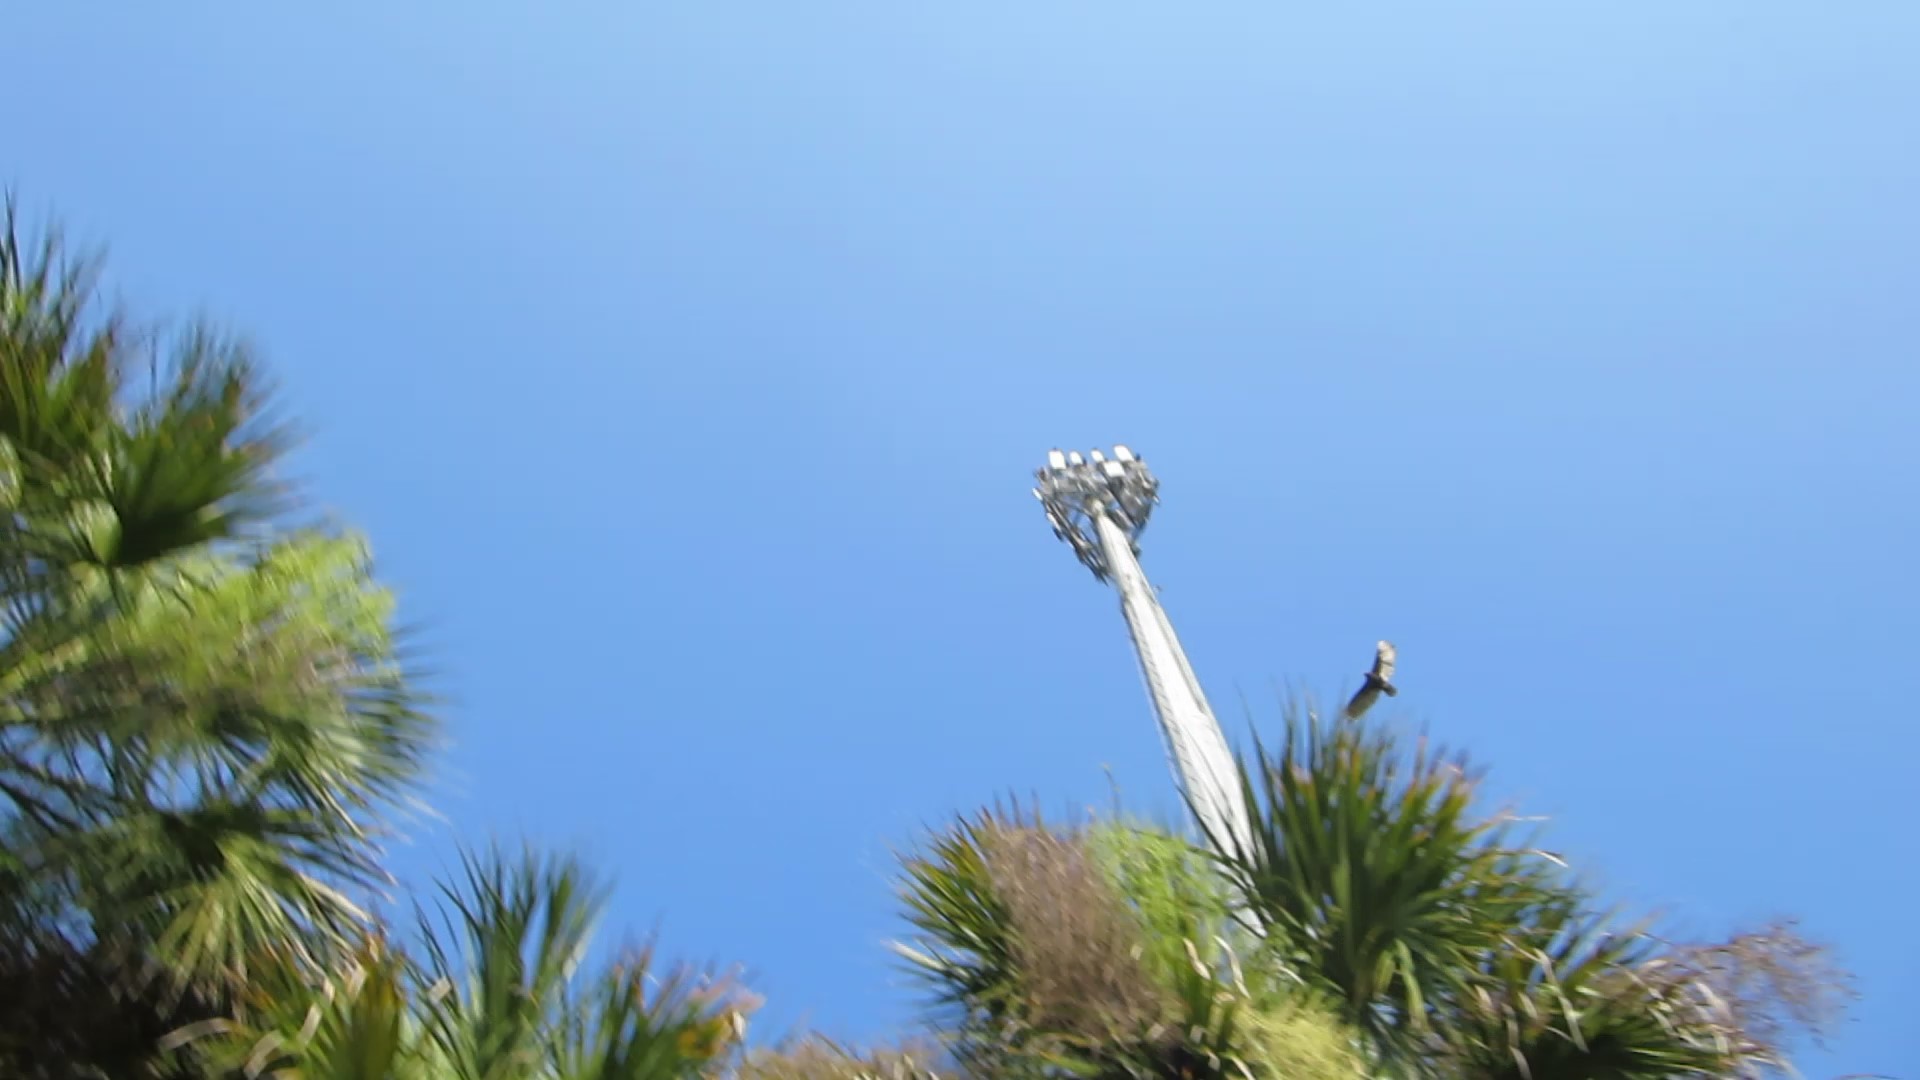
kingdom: Animalia
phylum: Chordata
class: Aves
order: Accipitriformes
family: Cathartidae
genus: Cathartes
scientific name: Cathartes aura
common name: Turkey vulture
